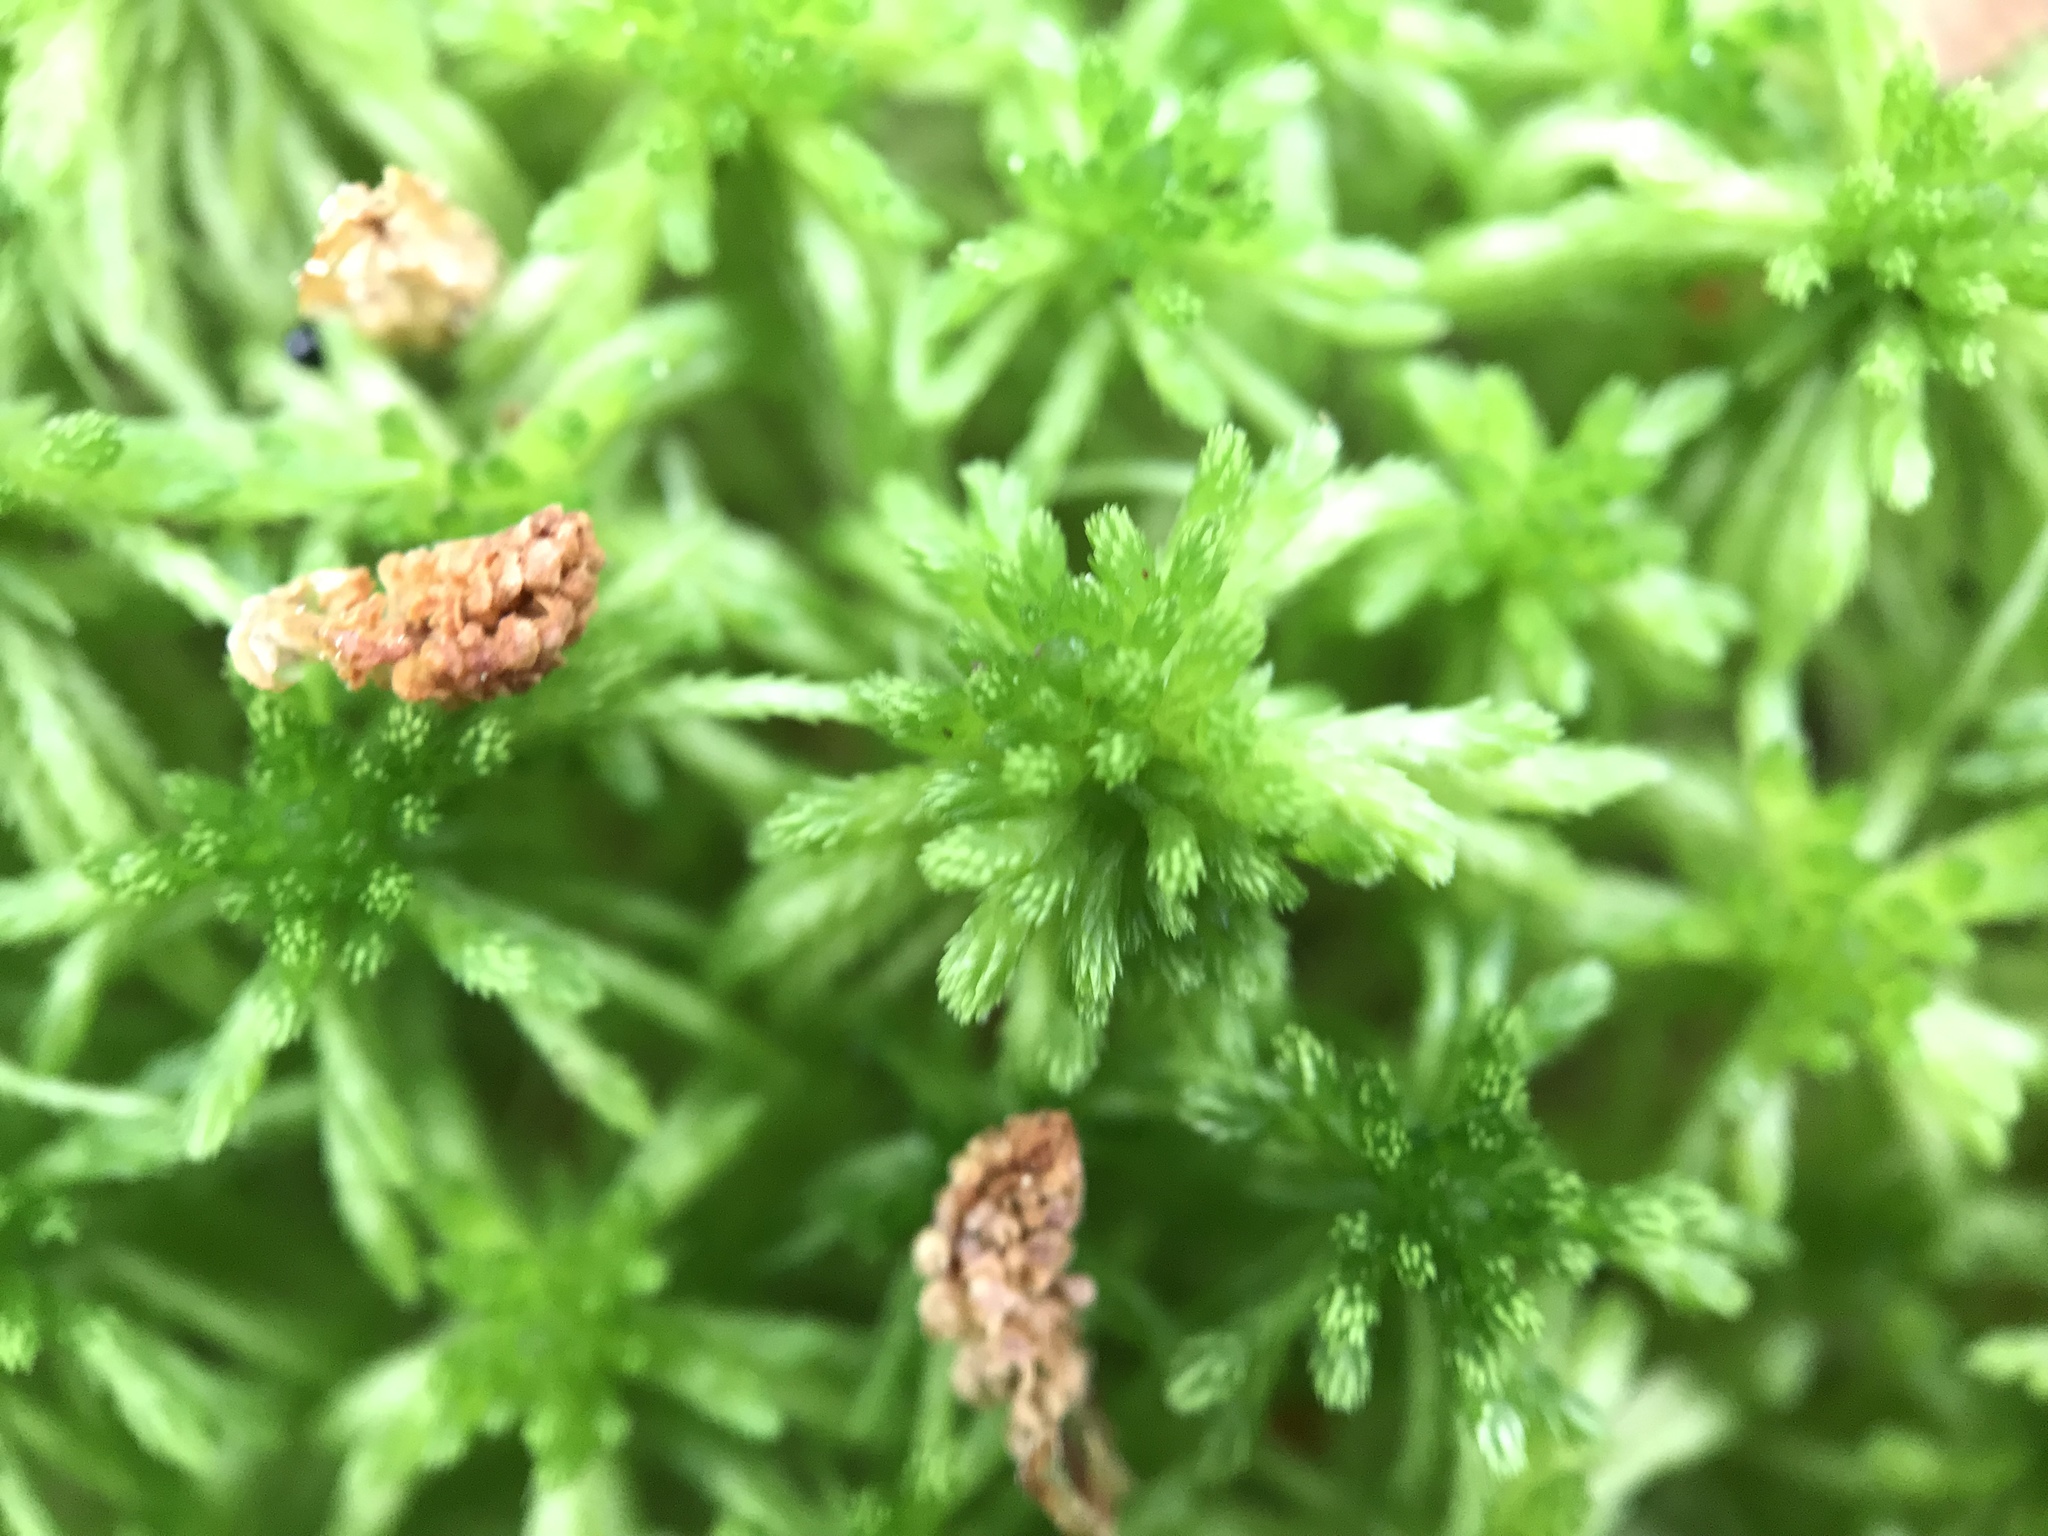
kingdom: Plantae
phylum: Bryophyta
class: Sphagnopsida
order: Sphagnales
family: Sphagnaceae
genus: Sphagnum
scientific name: Sphagnum girgensohnii
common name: Girgensohn's peat moss
